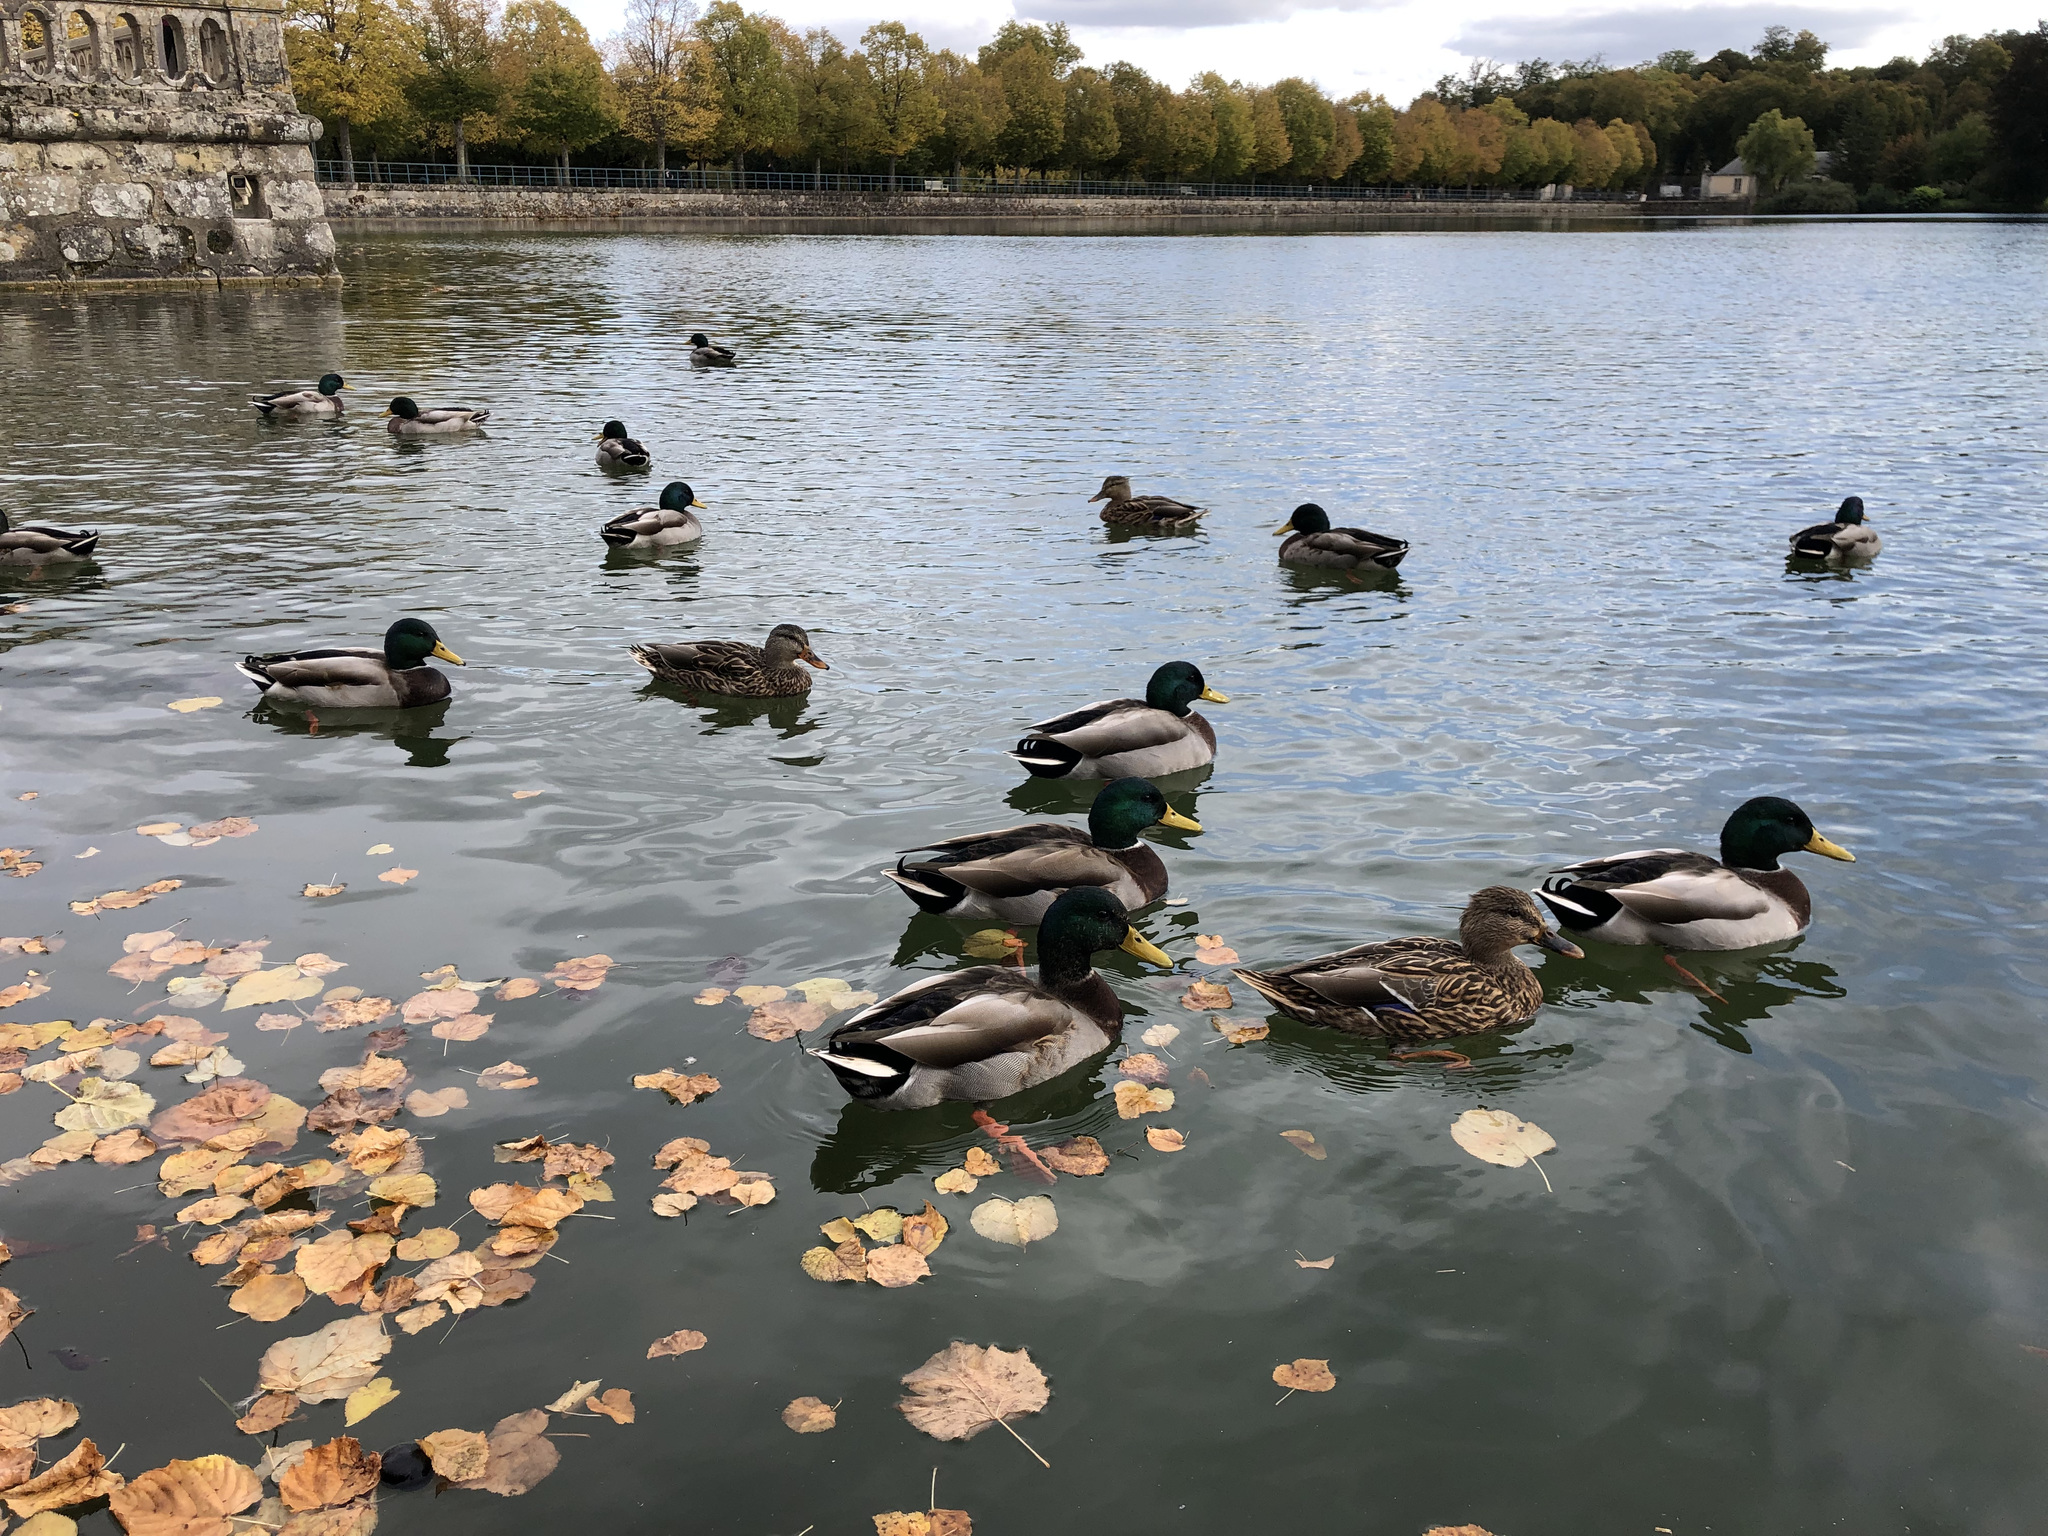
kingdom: Animalia
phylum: Chordata
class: Aves
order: Anseriformes
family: Anatidae
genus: Anas
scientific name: Anas platyrhynchos
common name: Mallard
